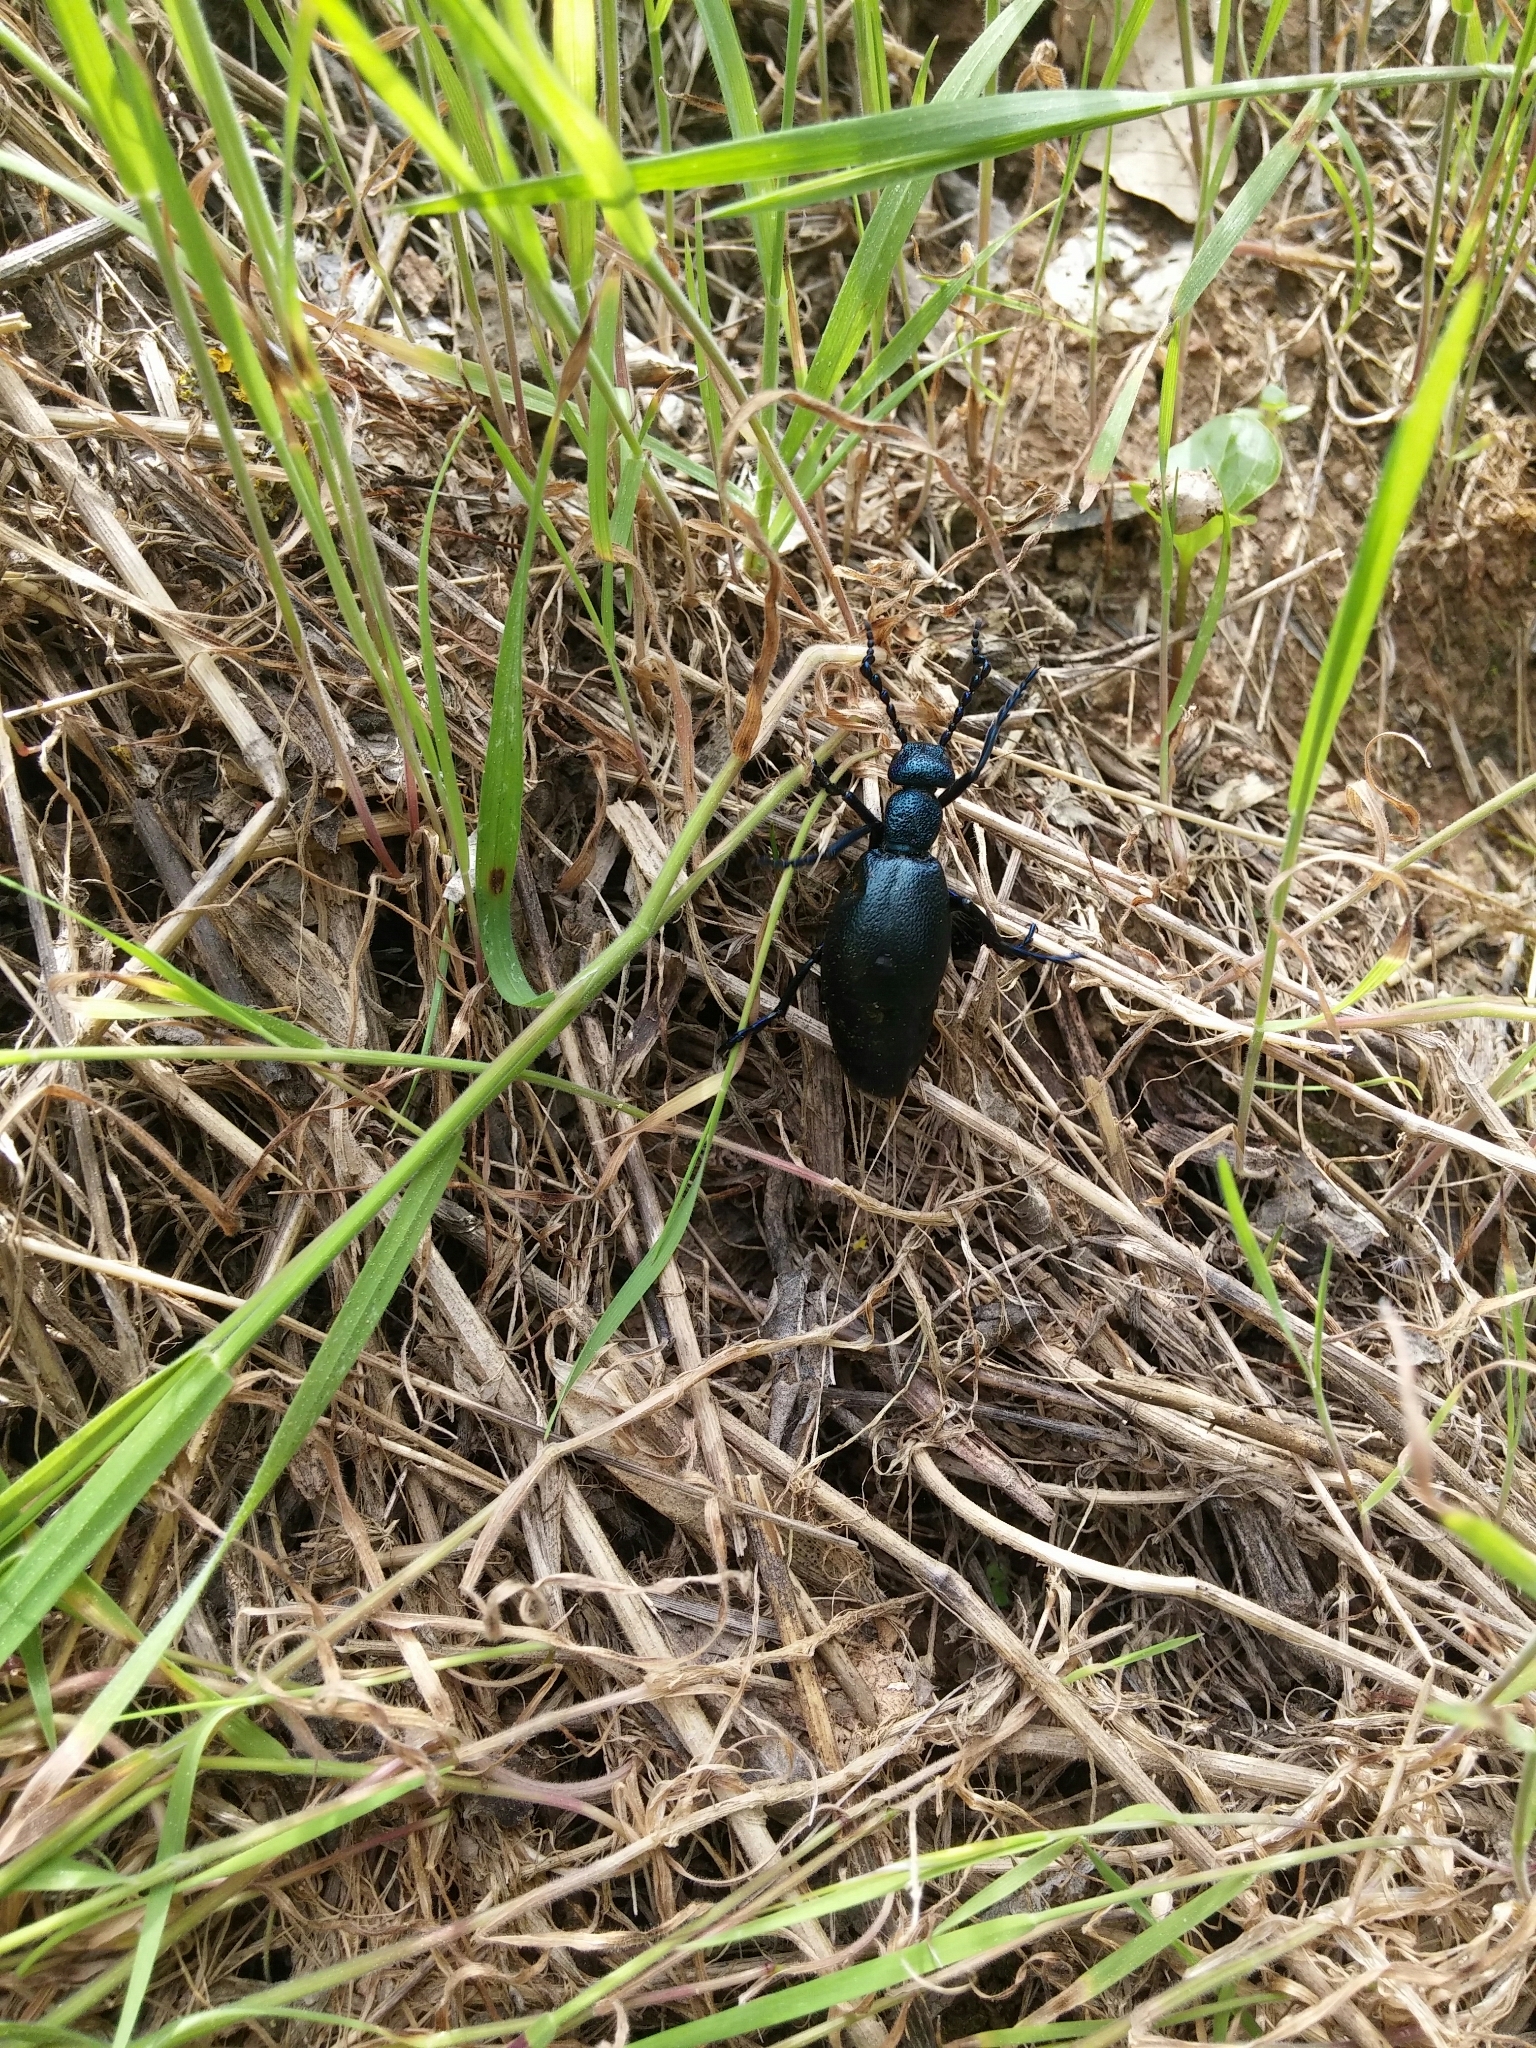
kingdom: Animalia
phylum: Arthropoda
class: Insecta
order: Coleoptera
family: Meloidae
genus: Meloe
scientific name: Meloe proscarabaeus
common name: Black oil-beetle
